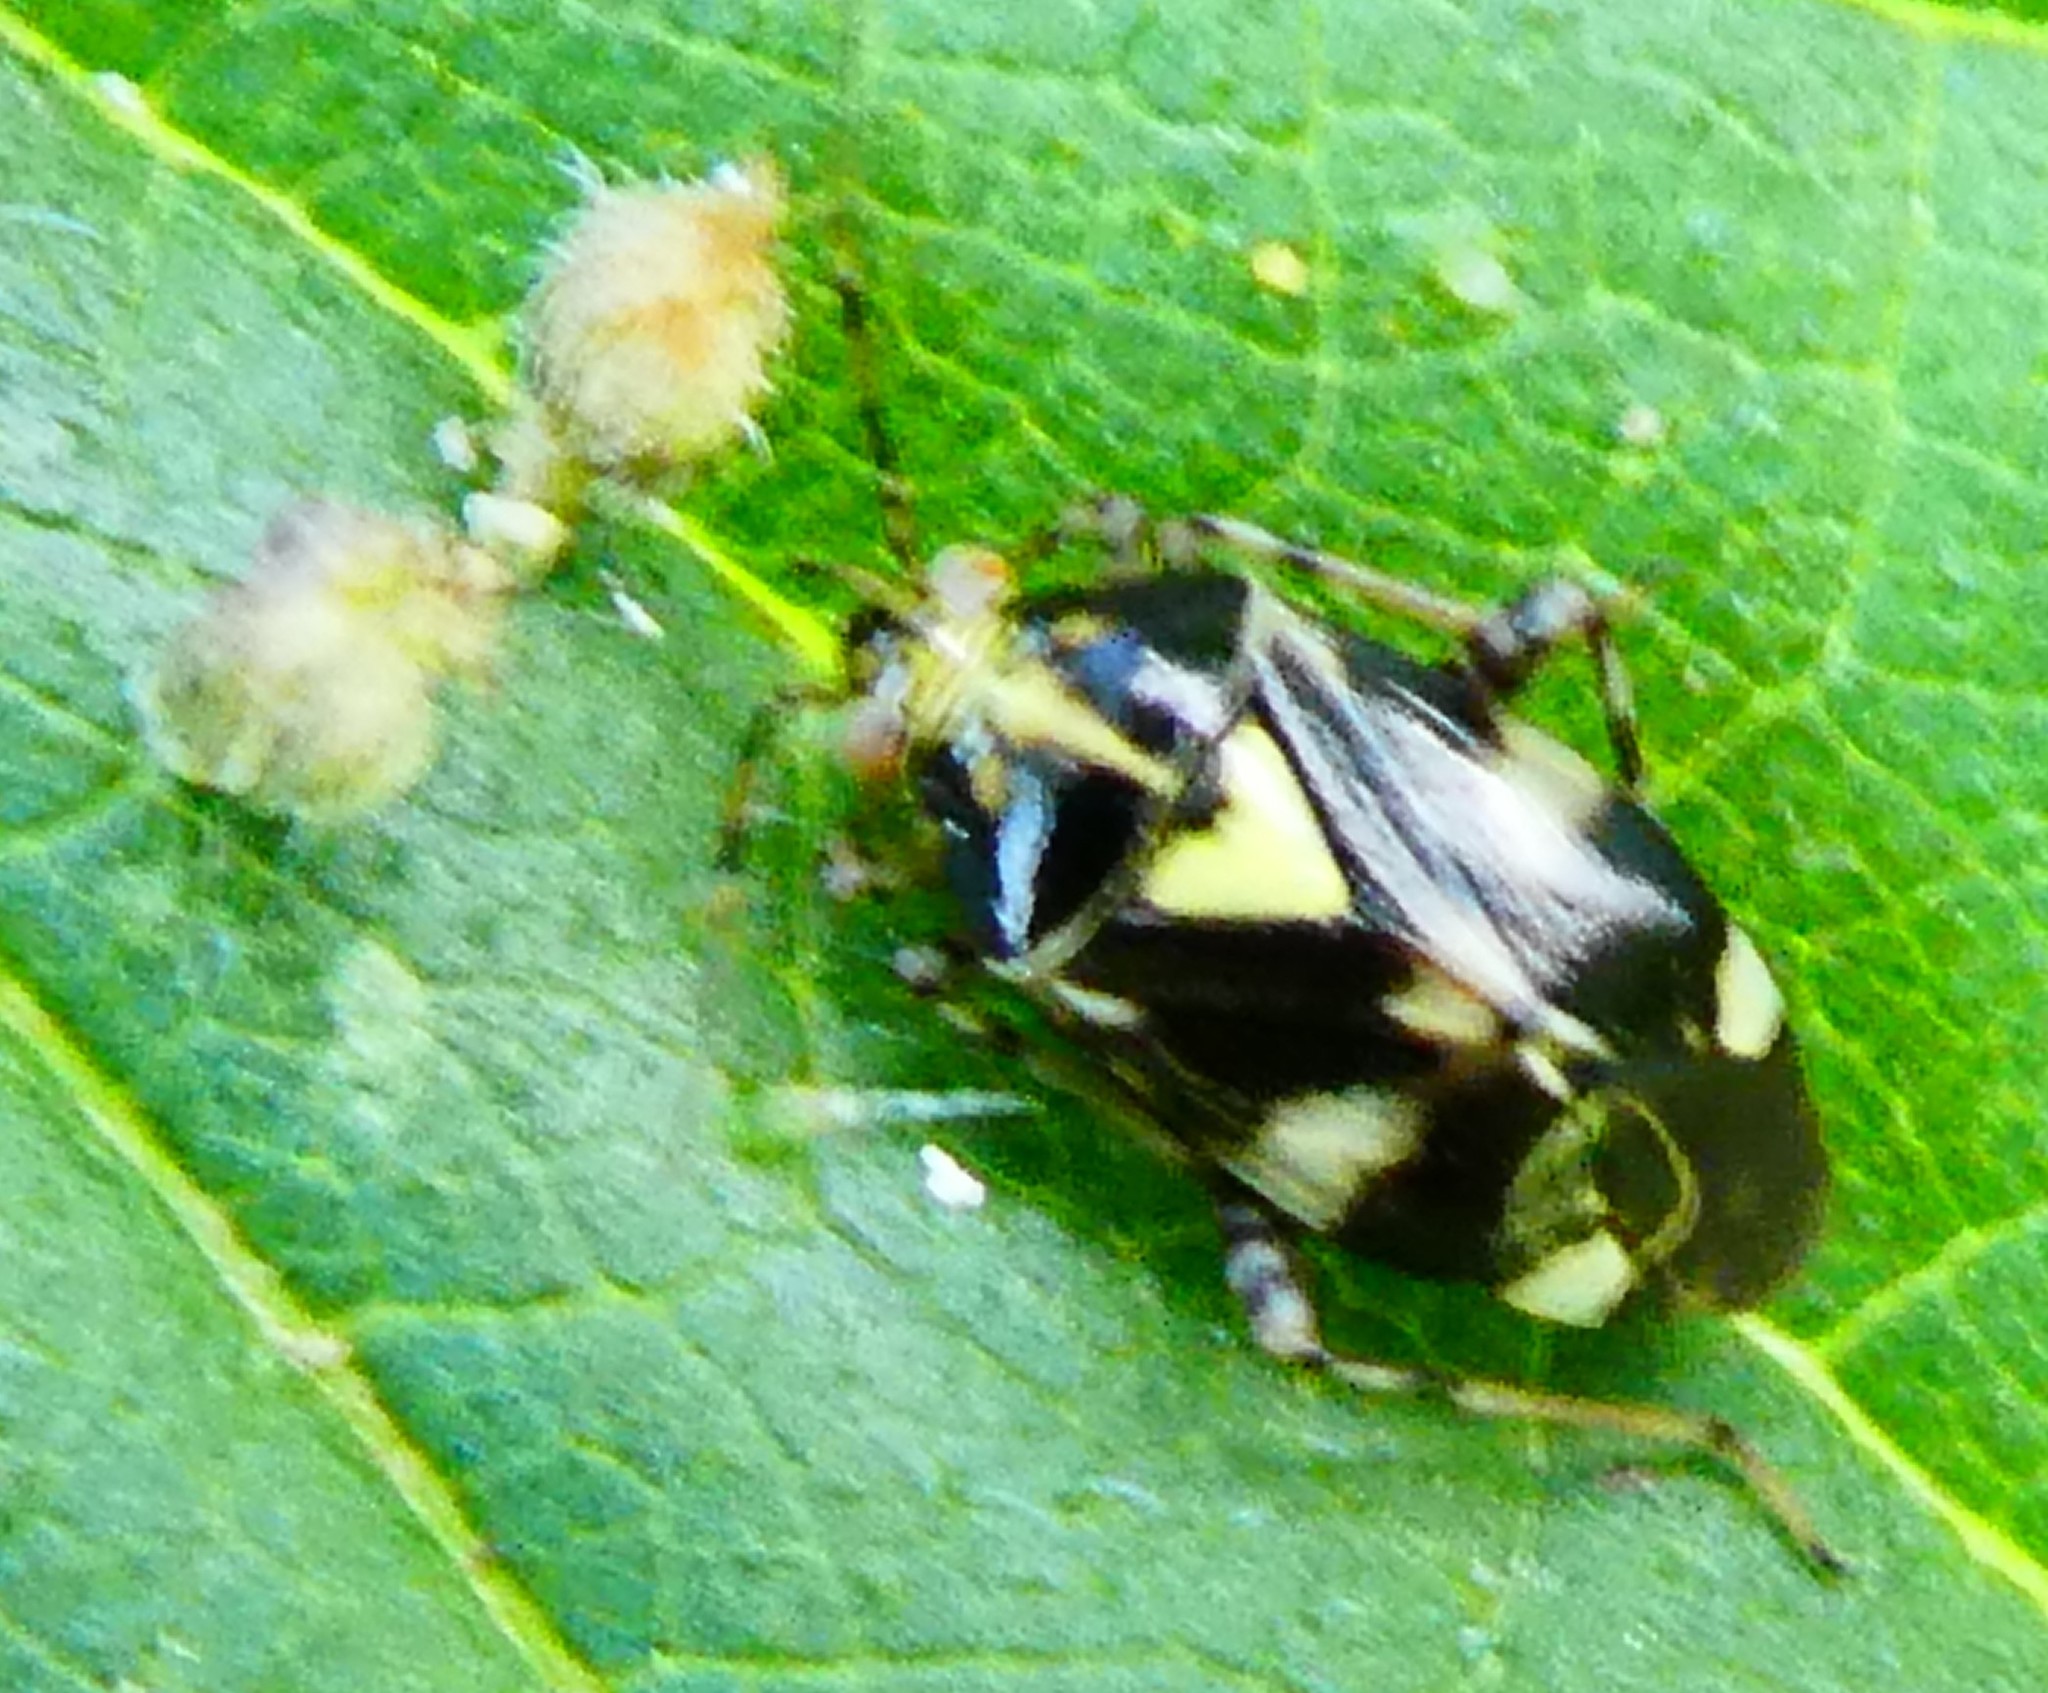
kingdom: Animalia
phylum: Arthropoda
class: Insecta
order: Hemiptera
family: Miridae
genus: Liocoris
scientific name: Liocoris tripustulatus
